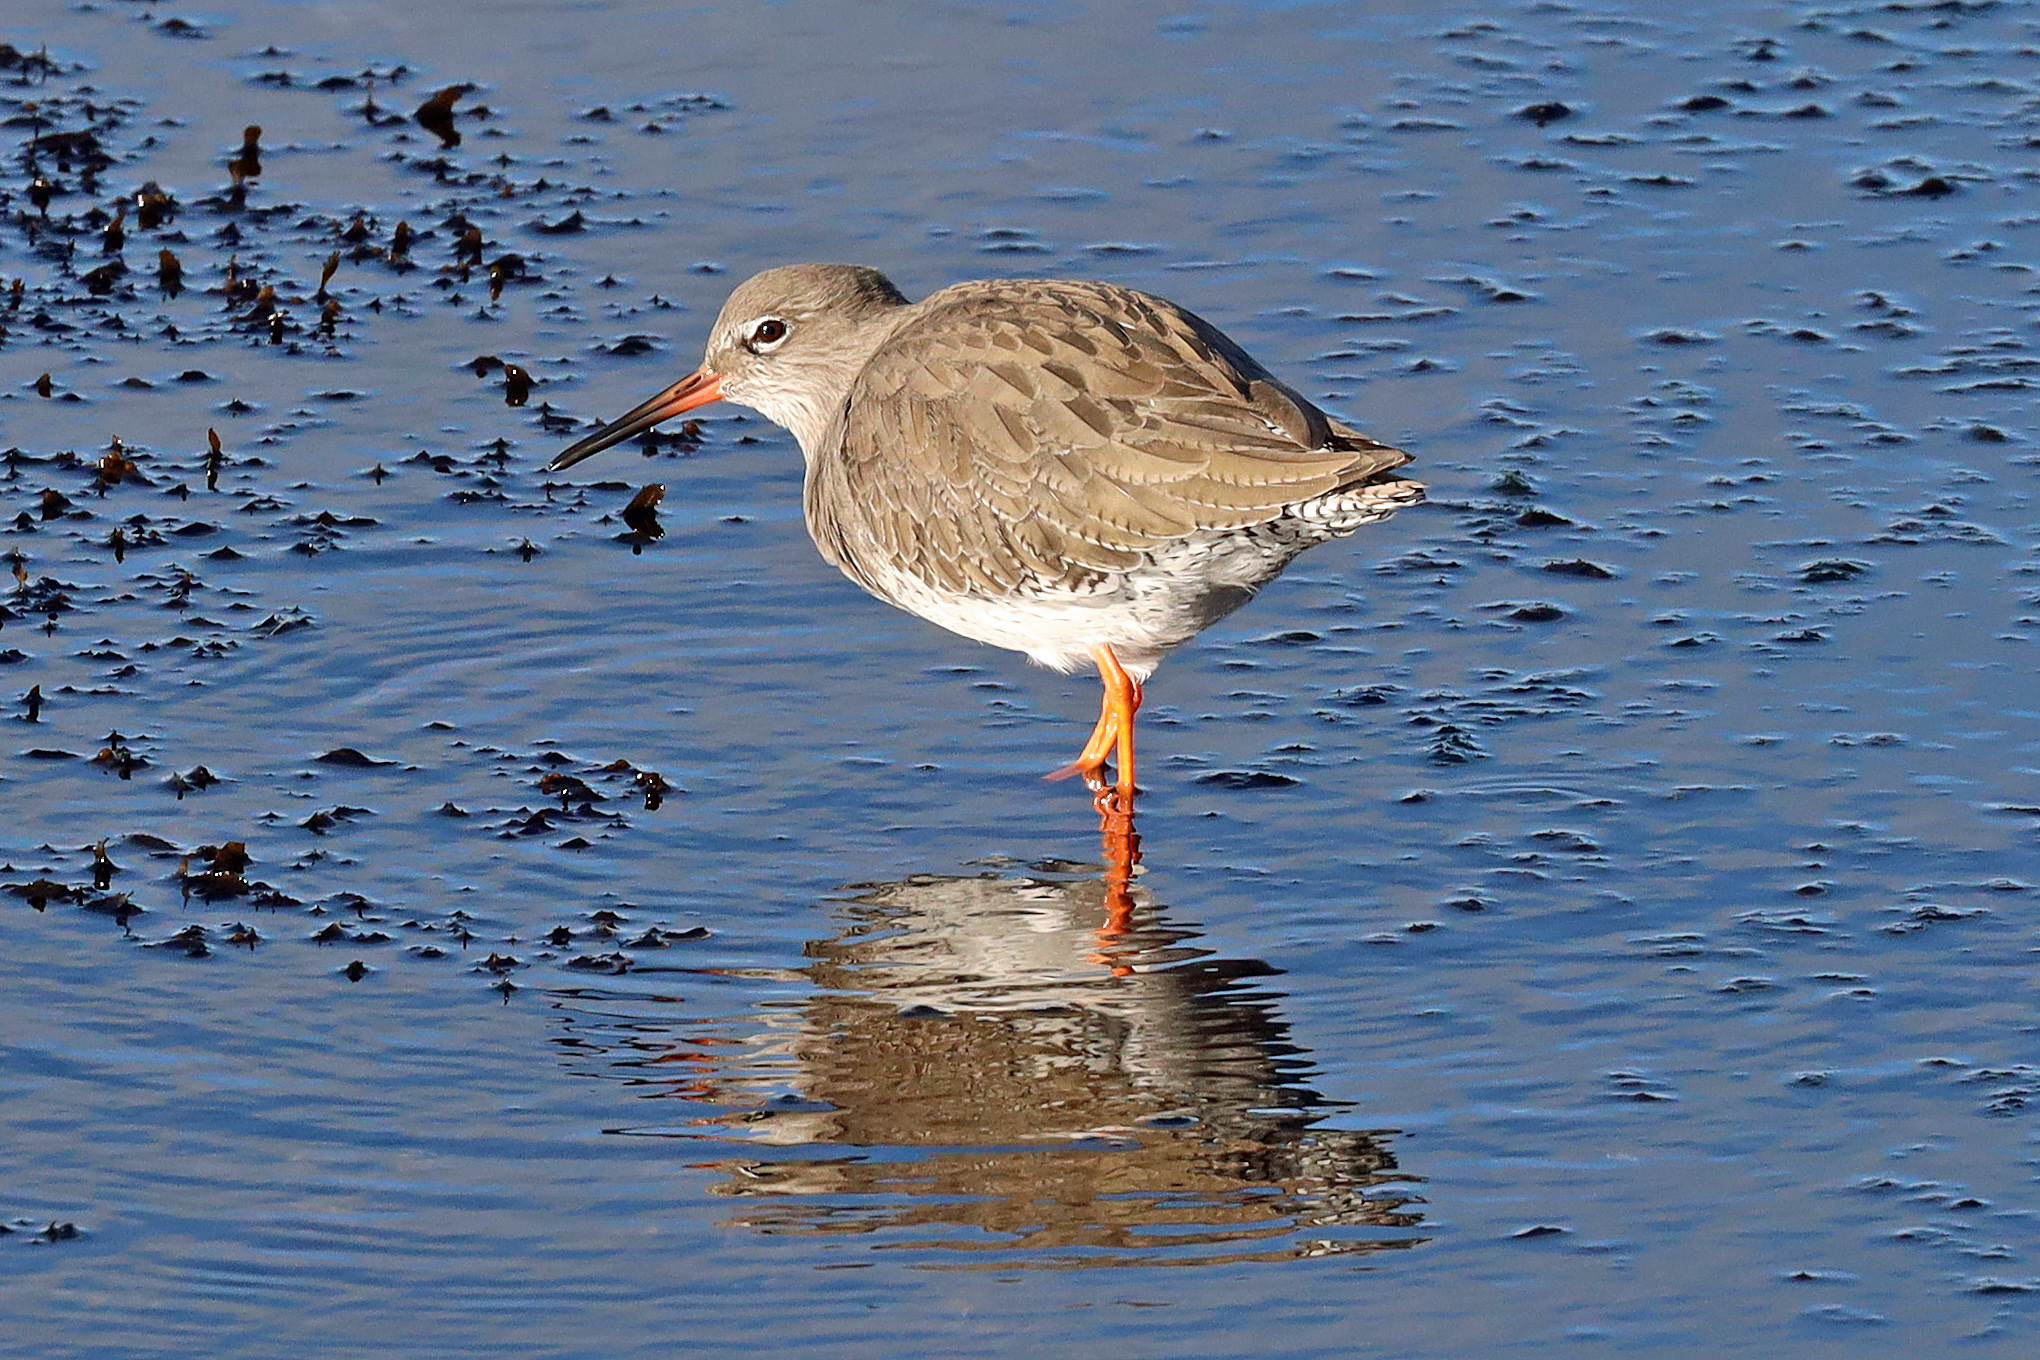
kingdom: Animalia
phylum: Chordata
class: Aves
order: Charadriiformes
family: Scolopacidae
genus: Tringa
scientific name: Tringa totanus
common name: Common redshank
